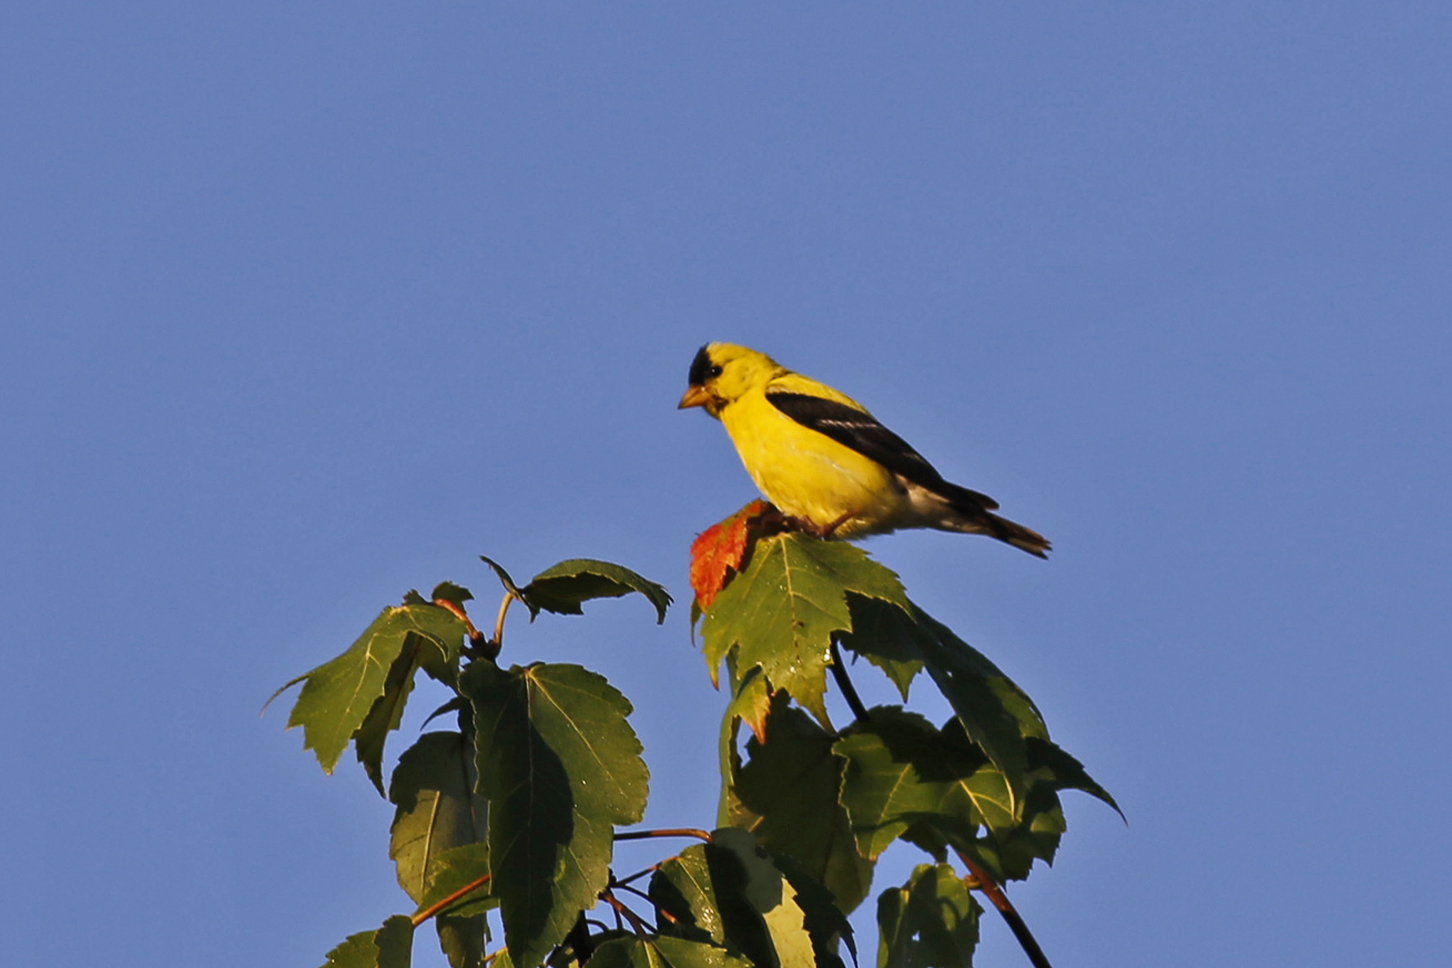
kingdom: Animalia
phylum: Chordata
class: Aves
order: Passeriformes
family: Fringillidae
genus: Spinus
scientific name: Spinus tristis
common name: American goldfinch
